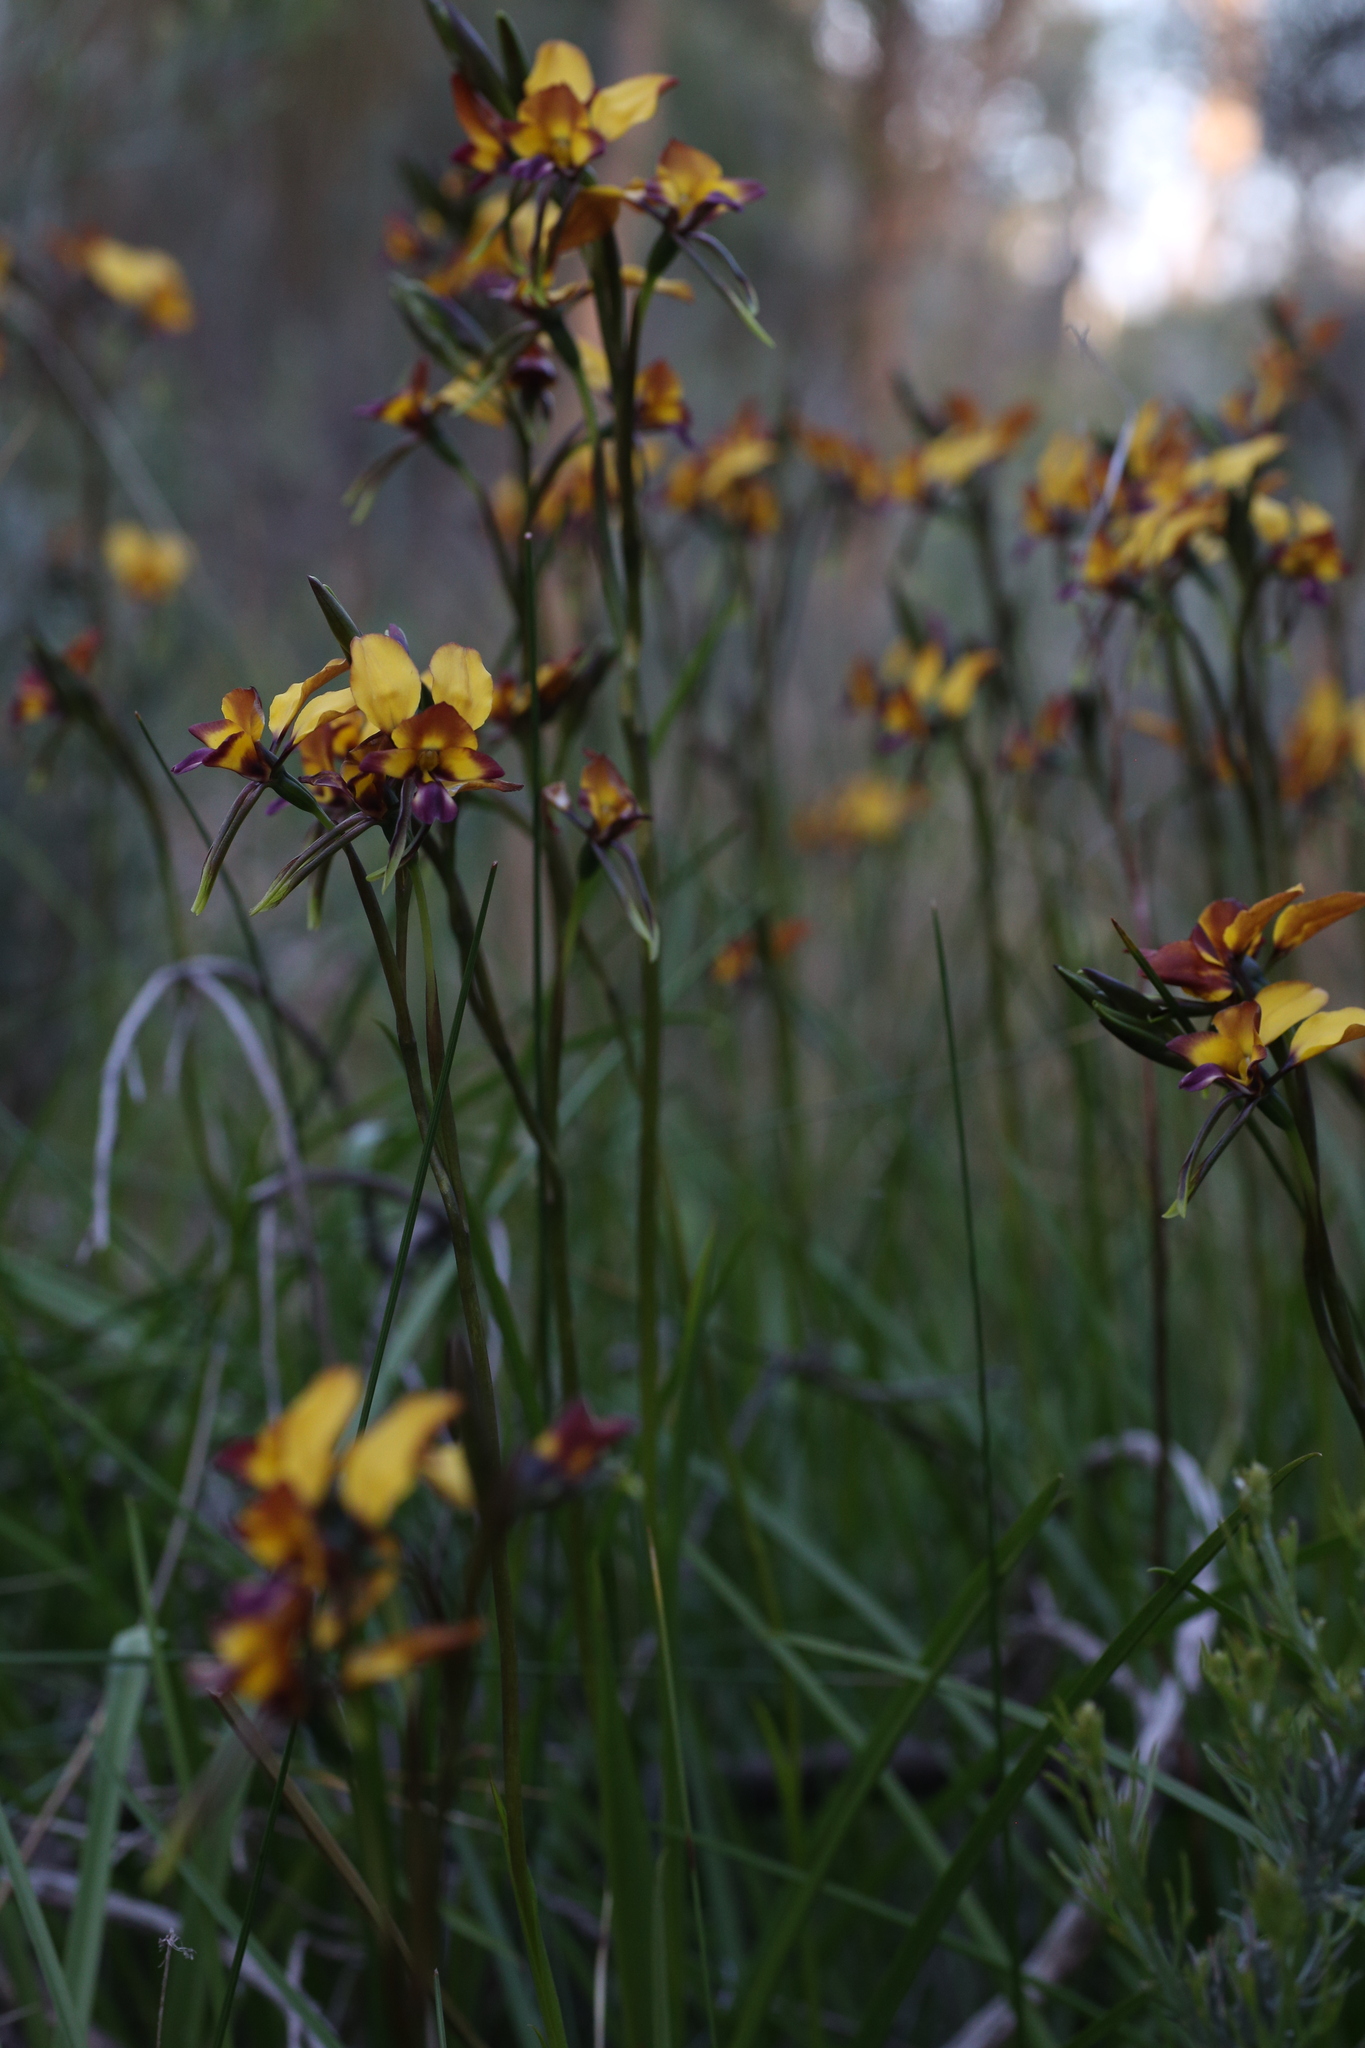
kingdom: Plantae
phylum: Tracheophyta
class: Liliopsida
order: Asparagales
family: Orchidaceae
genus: Diuris
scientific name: Diuris magnifica
